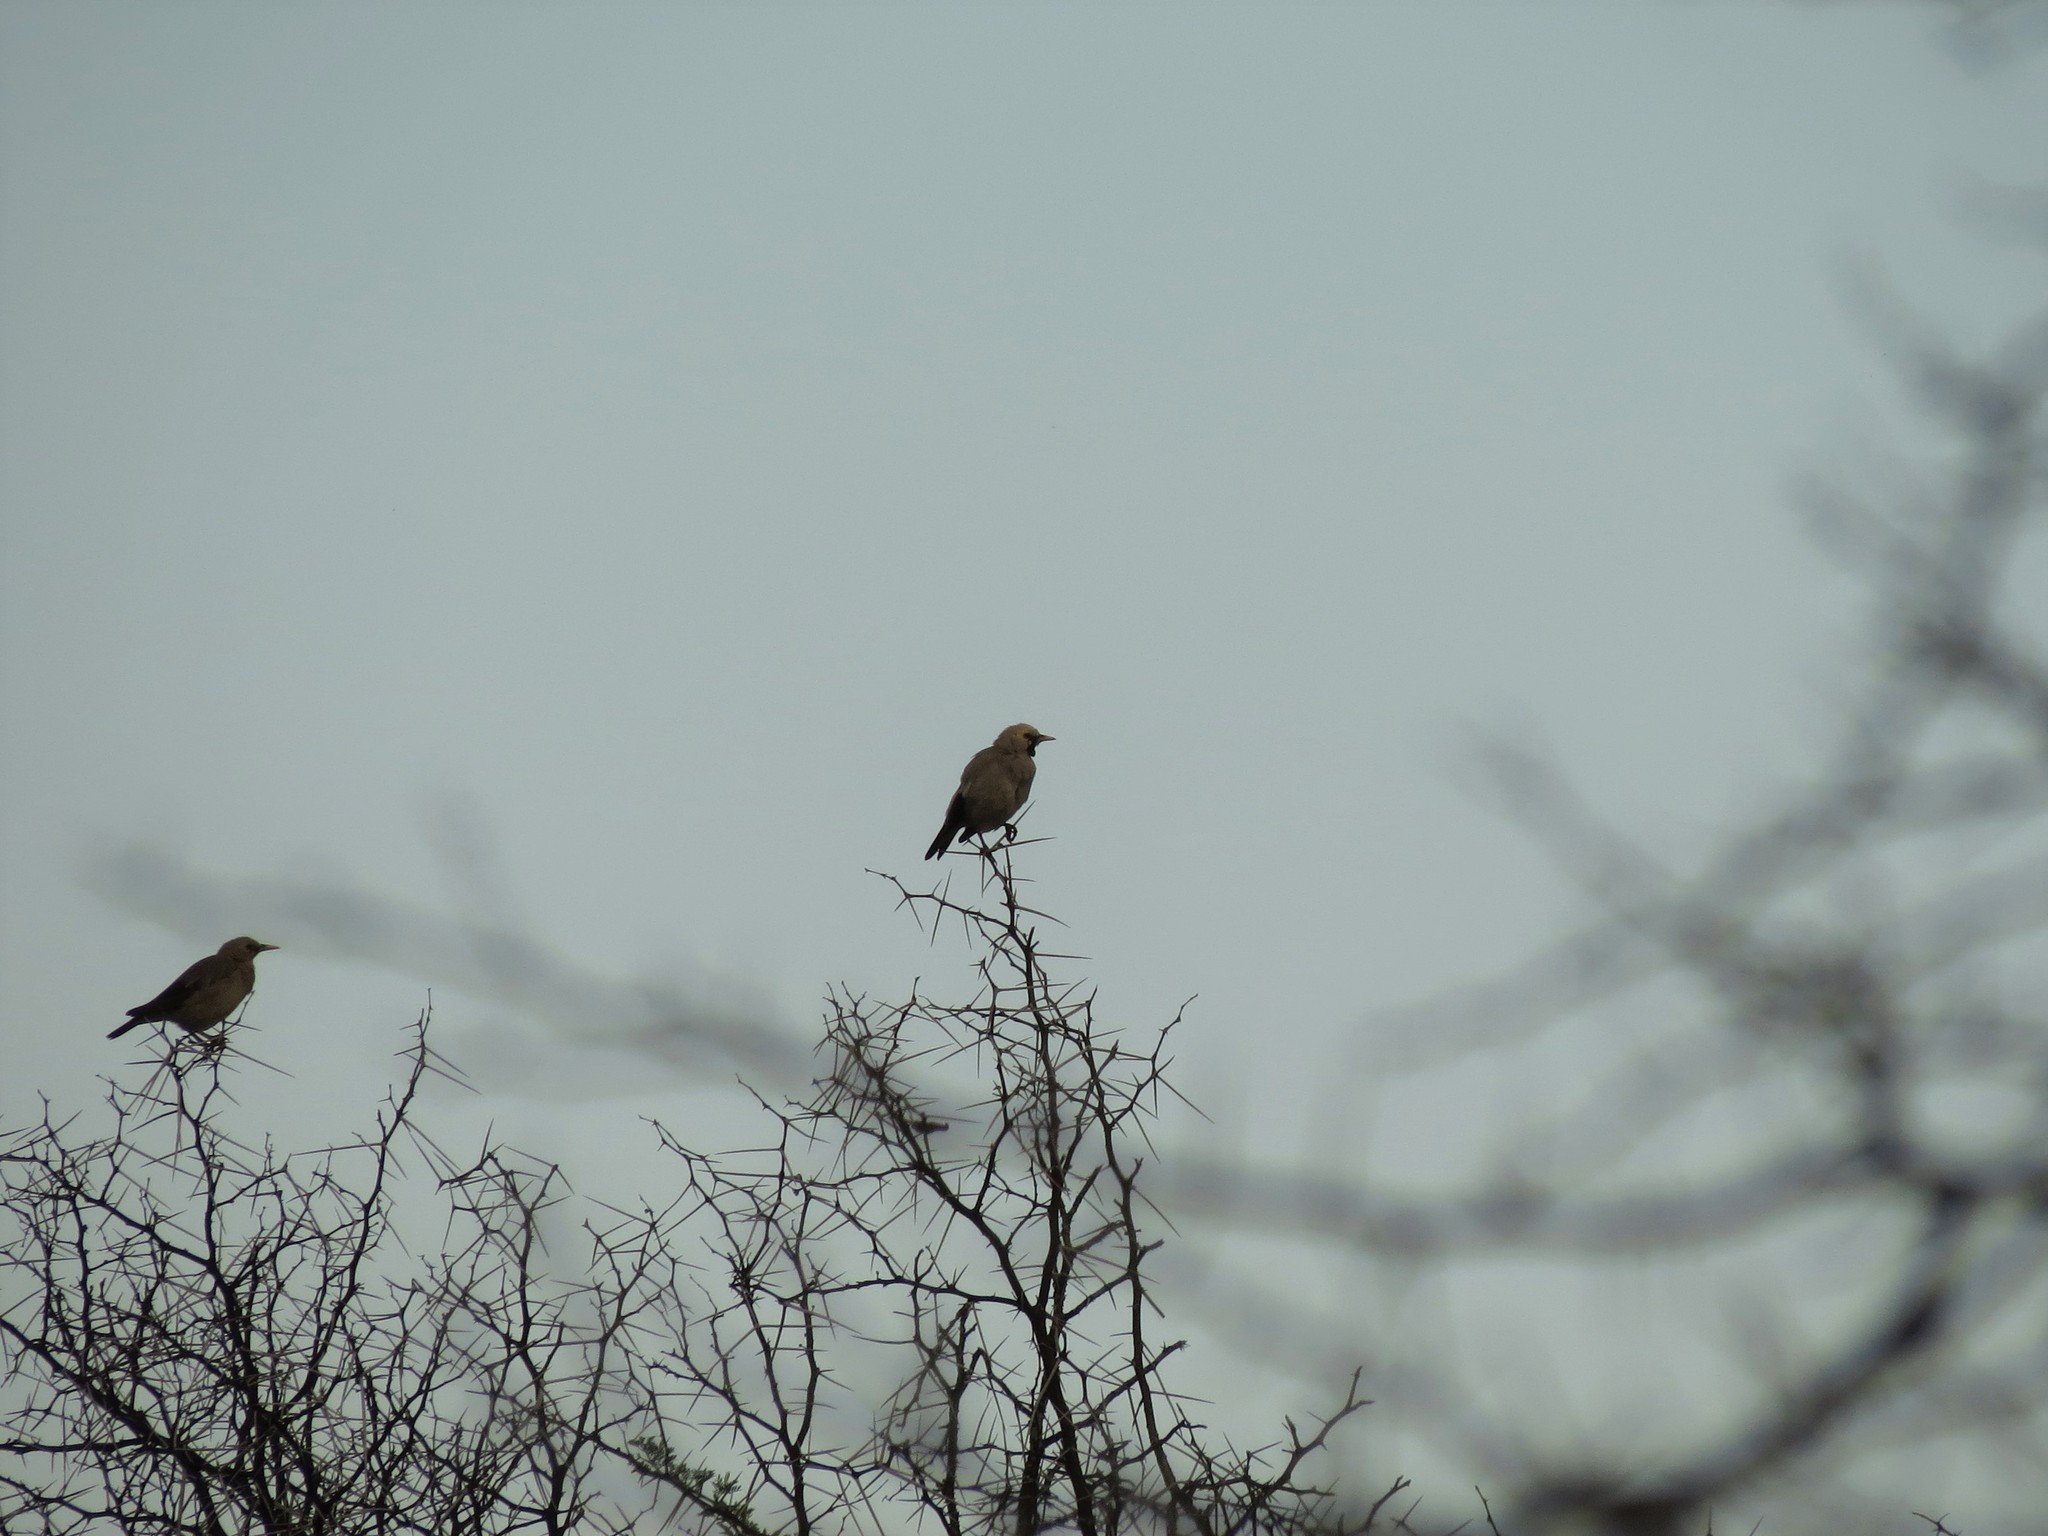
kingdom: Animalia
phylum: Chordata
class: Aves
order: Passeriformes
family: Sturnidae
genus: Creatophora
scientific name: Creatophora cinerea
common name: Wattled starling
